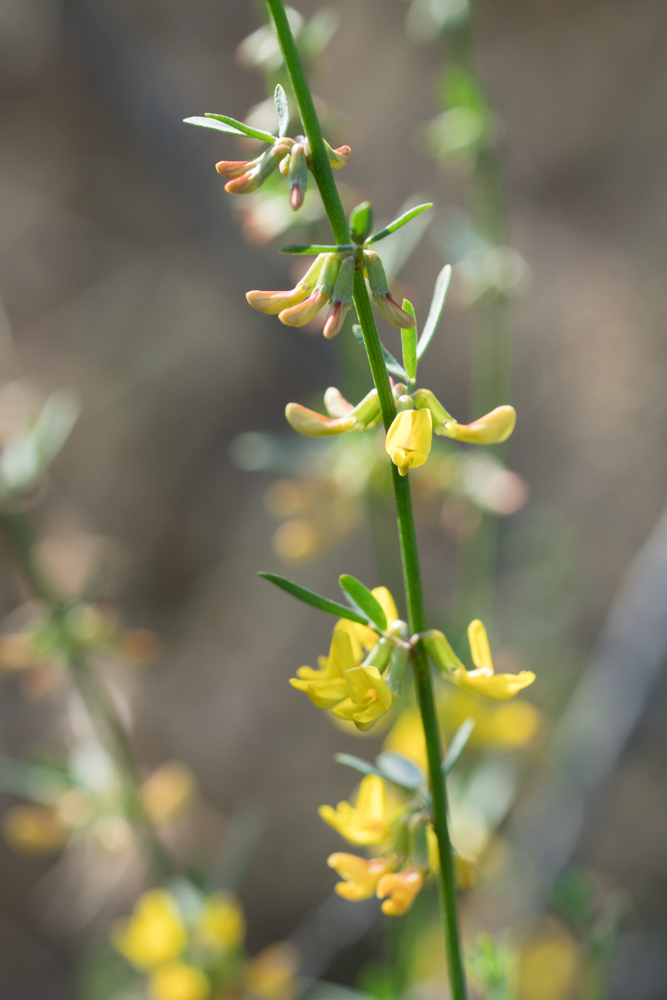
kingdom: Plantae
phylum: Tracheophyta
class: Magnoliopsida
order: Fabales
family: Fabaceae
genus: Acmispon
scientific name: Acmispon glaber
